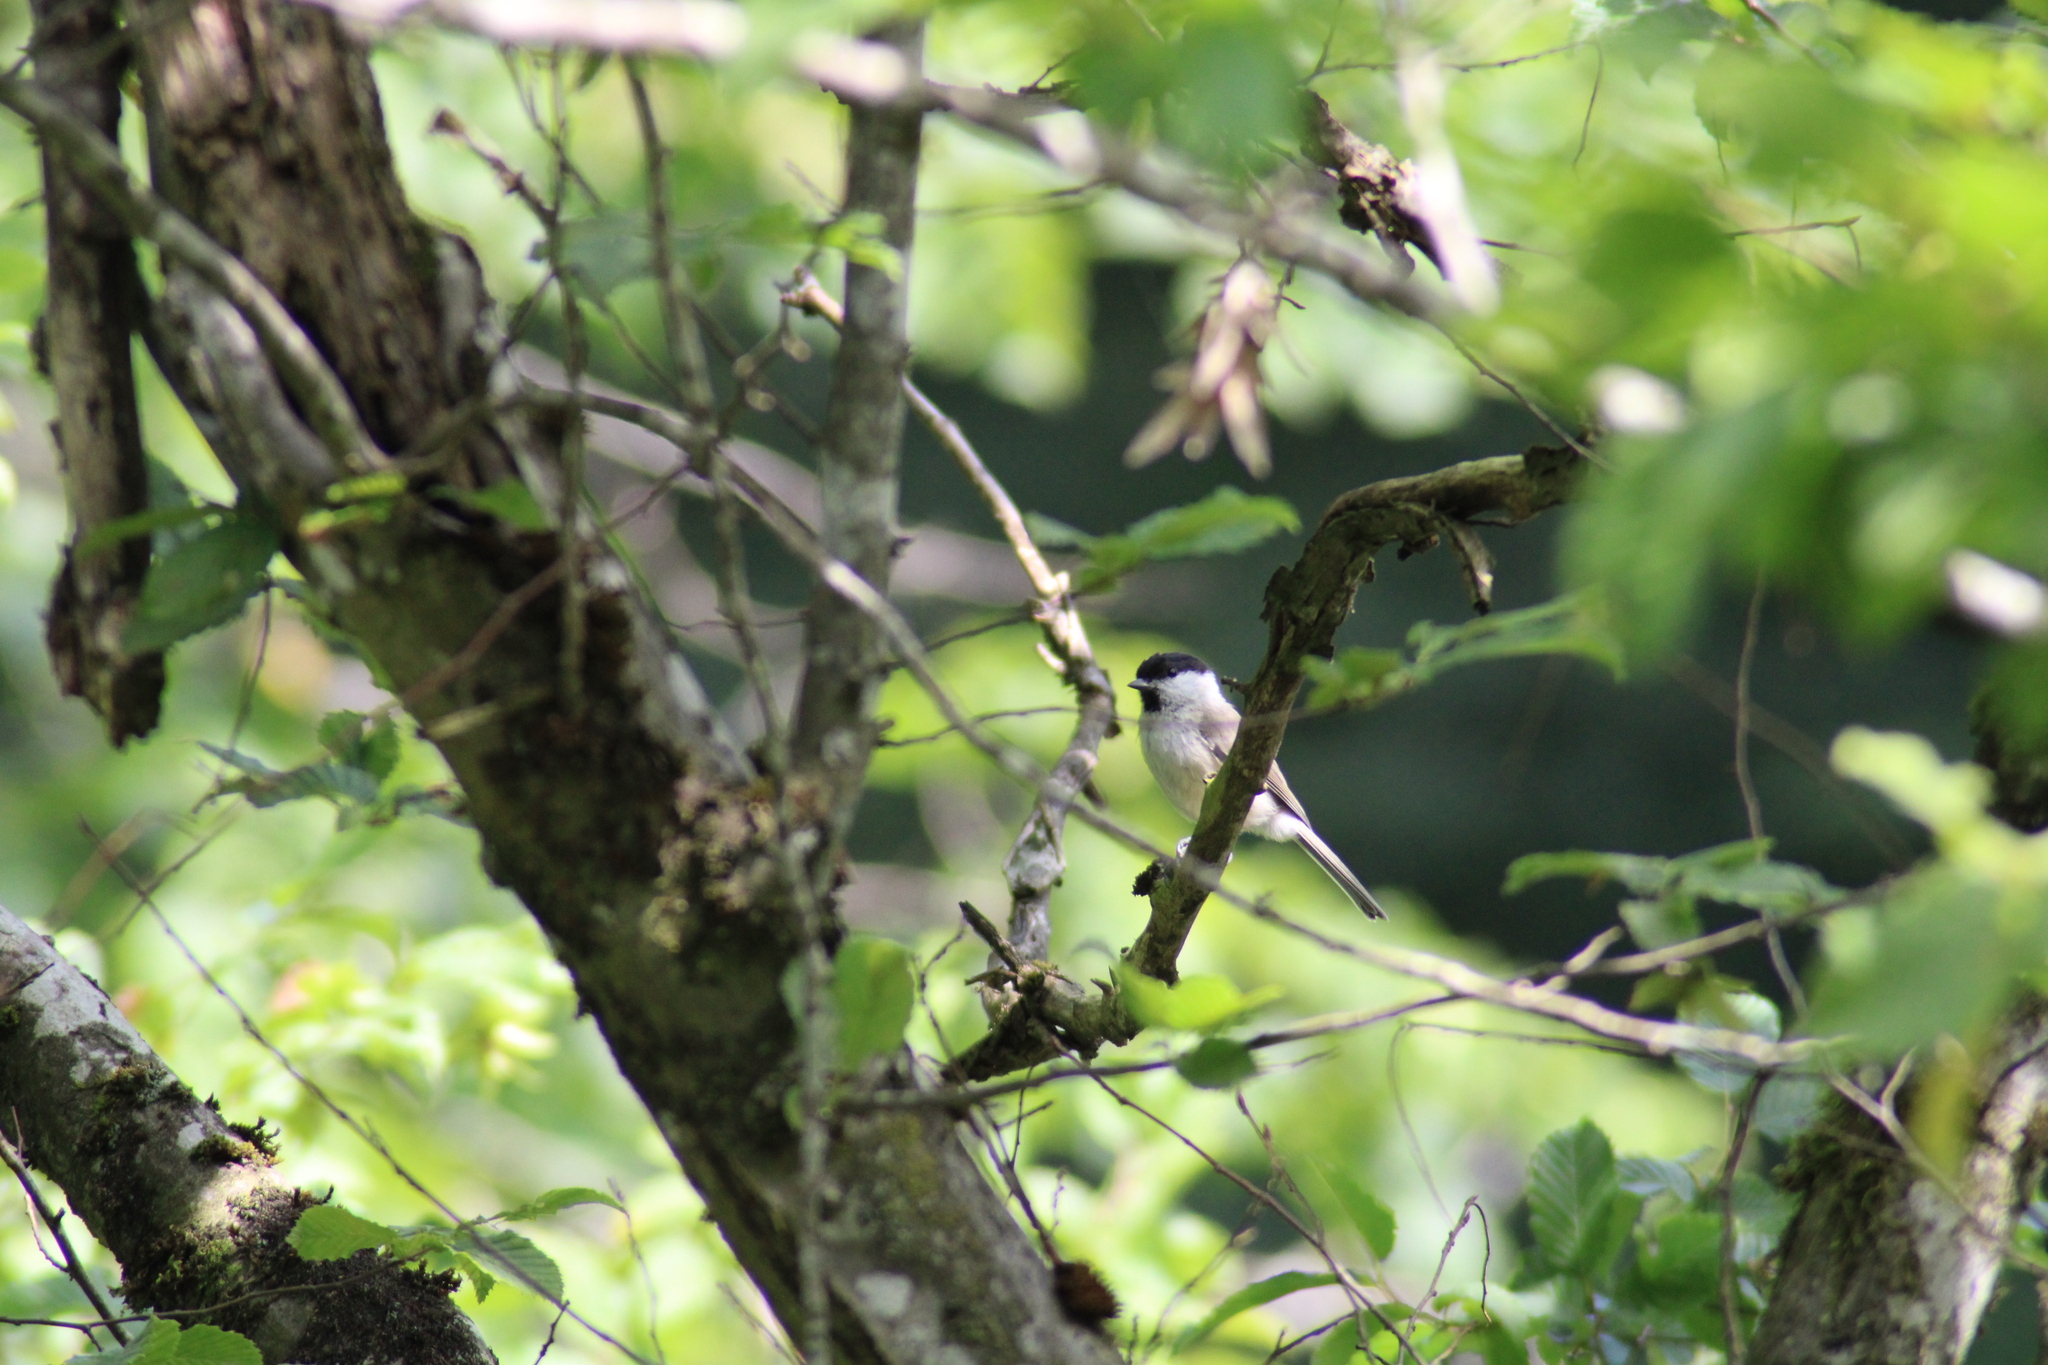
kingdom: Animalia
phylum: Chordata
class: Aves
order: Passeriformes
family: Paridae
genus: Poecile
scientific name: Poecile palustris
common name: Marsh tit
